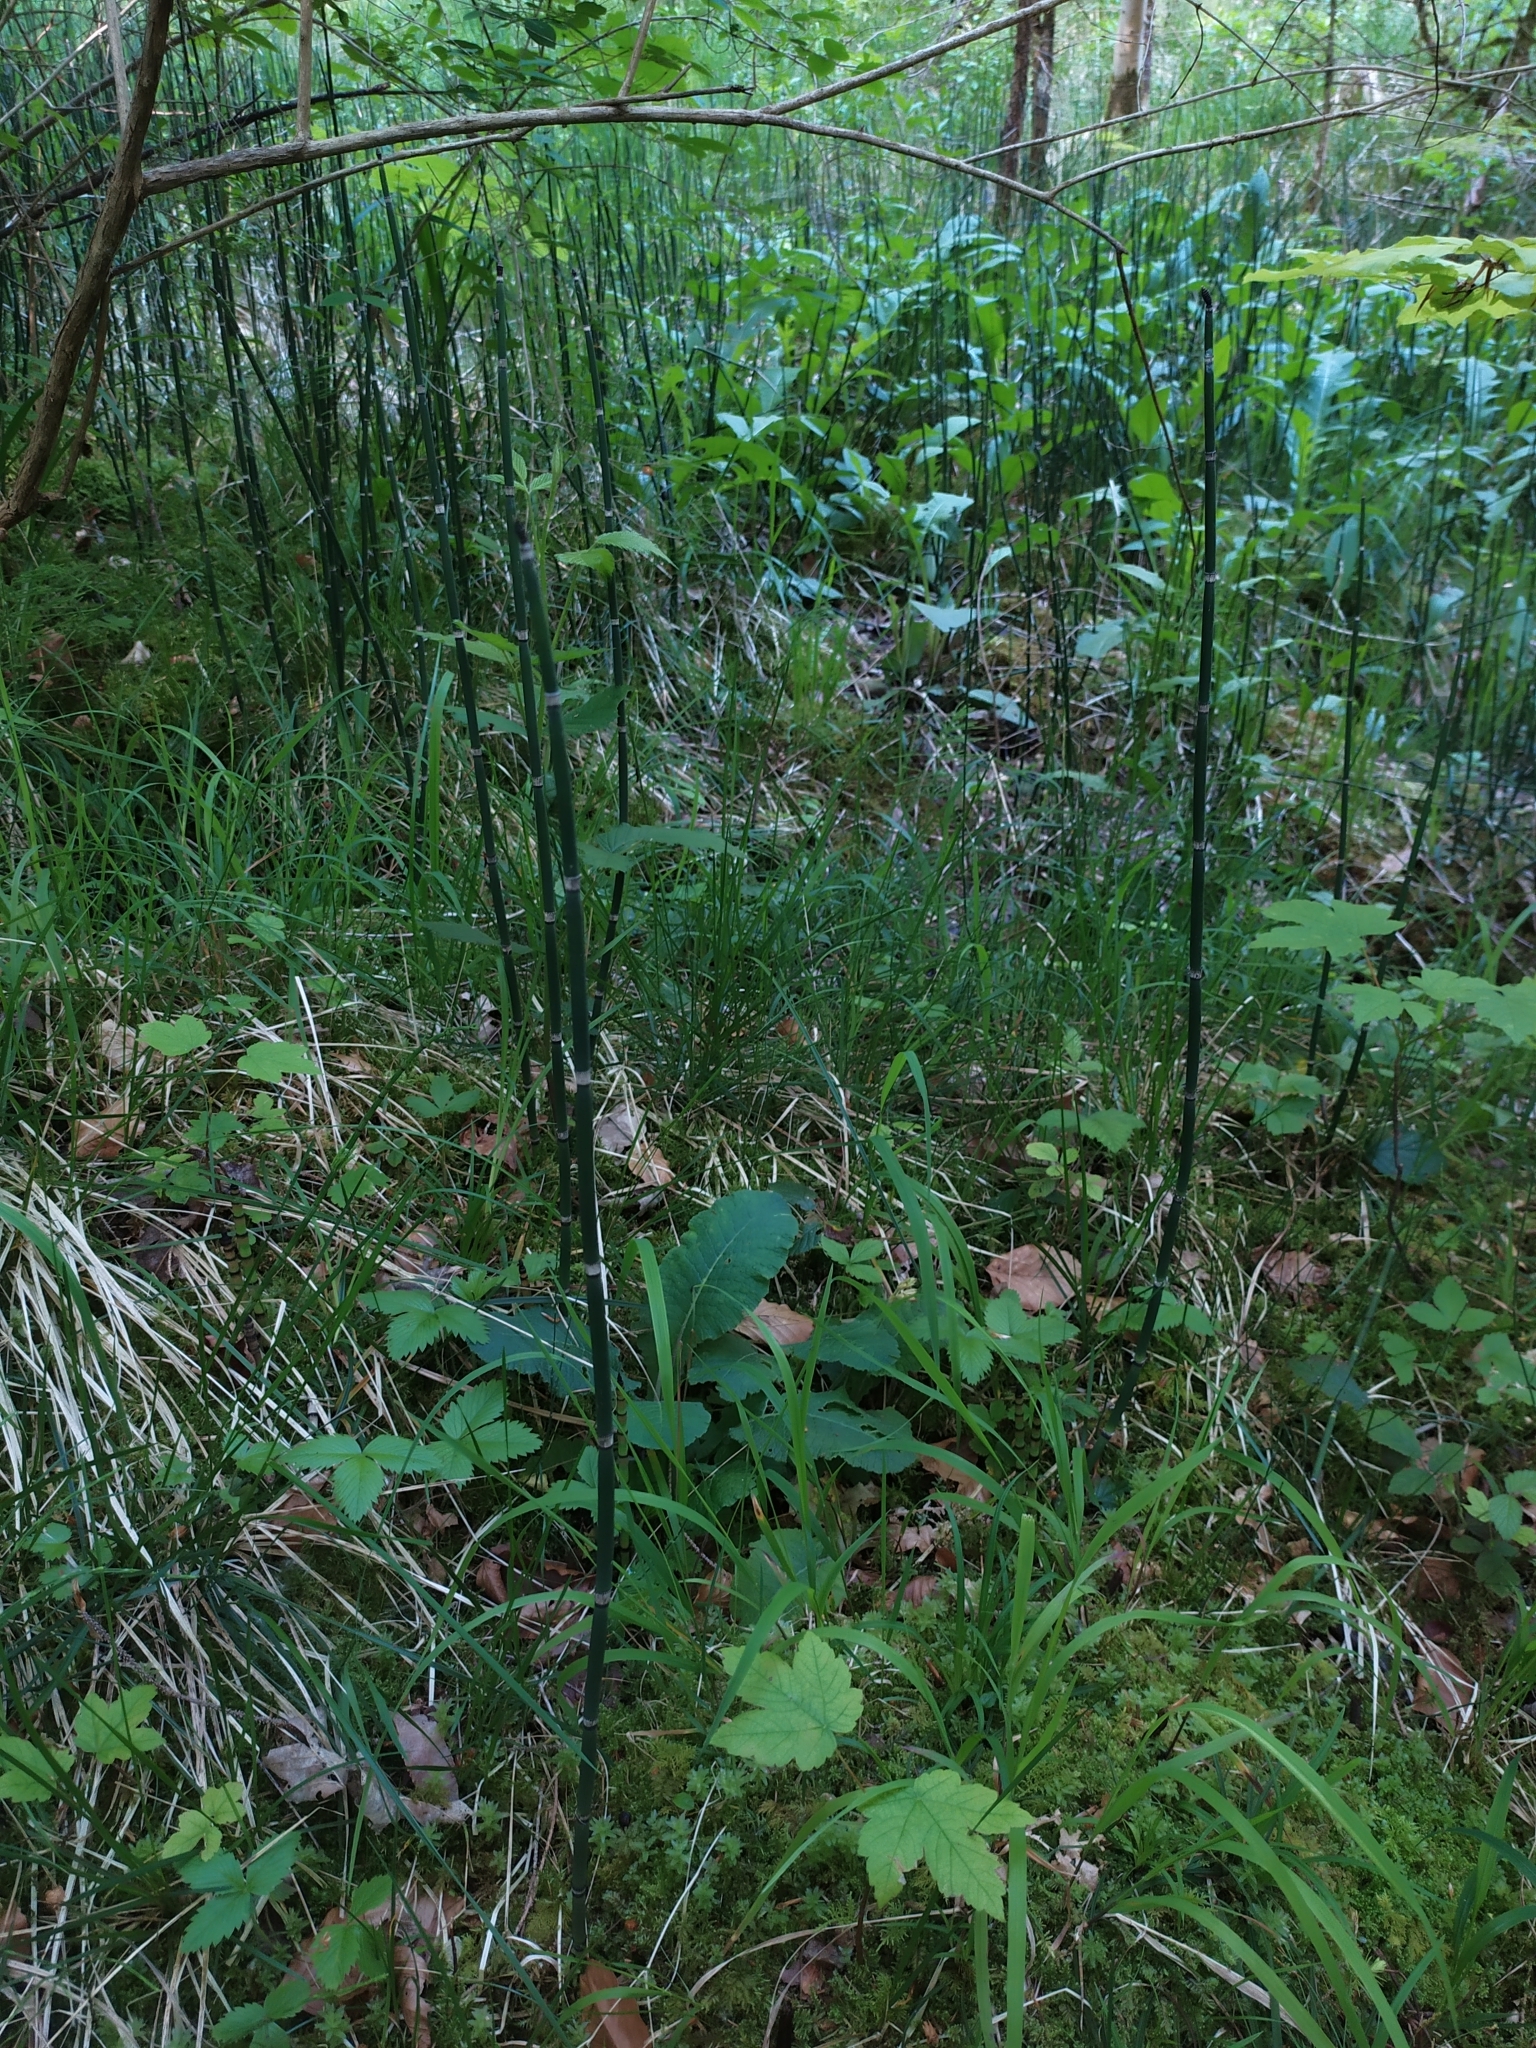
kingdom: Plantae
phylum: Tracheophyta
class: Polypodiopsida
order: Equisetales
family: Equisetaceae
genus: Equisetum
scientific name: Equisetum hyemale
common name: Rough horsetail
